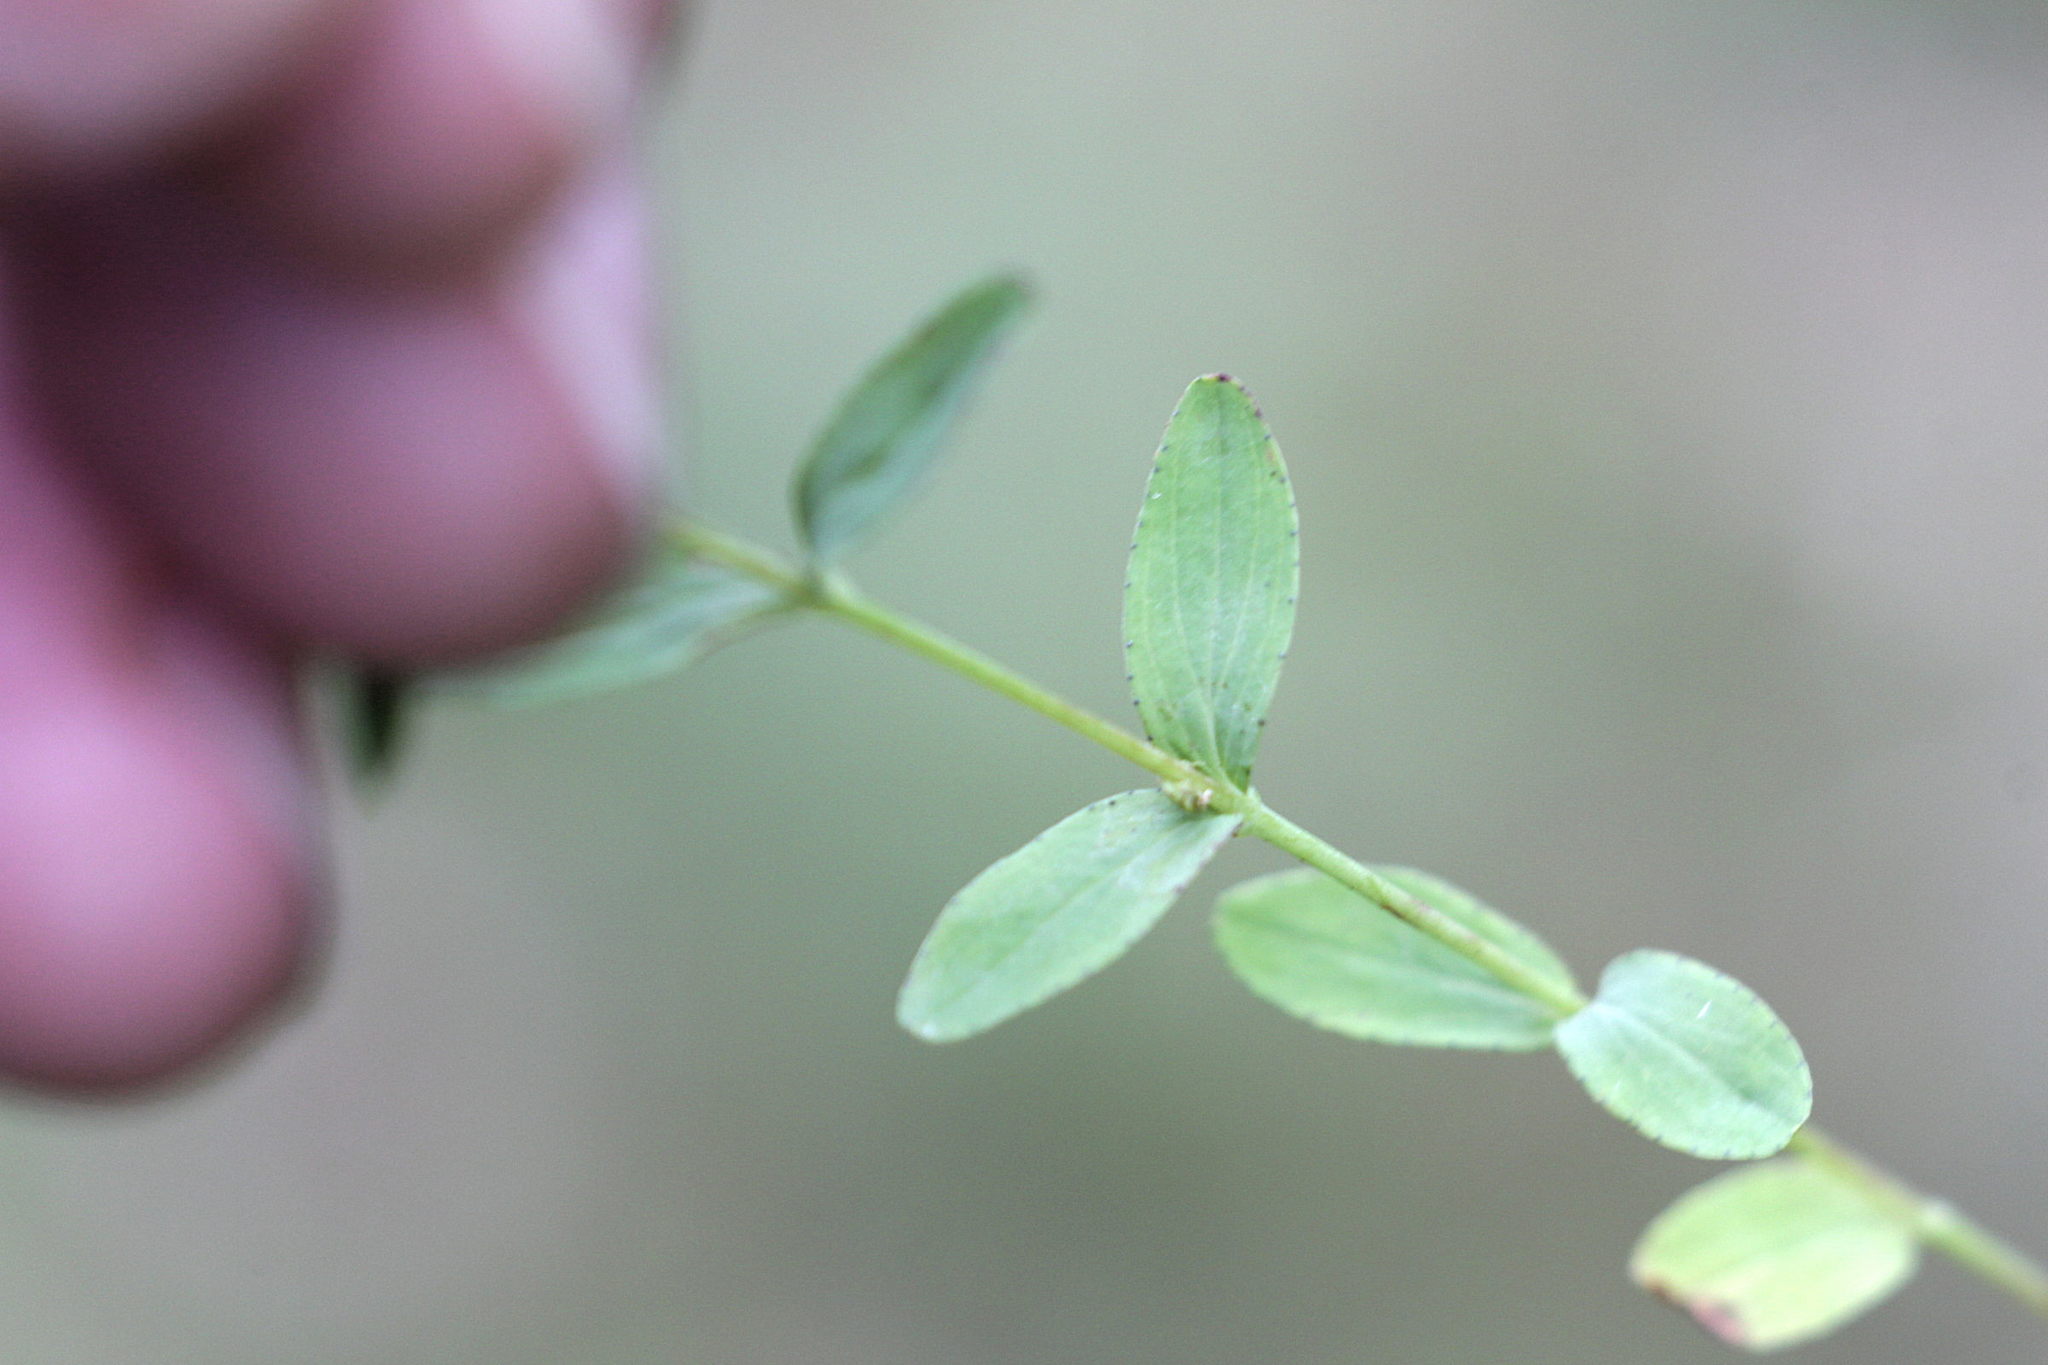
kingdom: Plantae
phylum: Tracheophyta
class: Magnoliopsida
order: Malpighiales
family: Hypericaceae
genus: Hypericum
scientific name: Hypericum humifusum
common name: Trailing st. john's-wort
